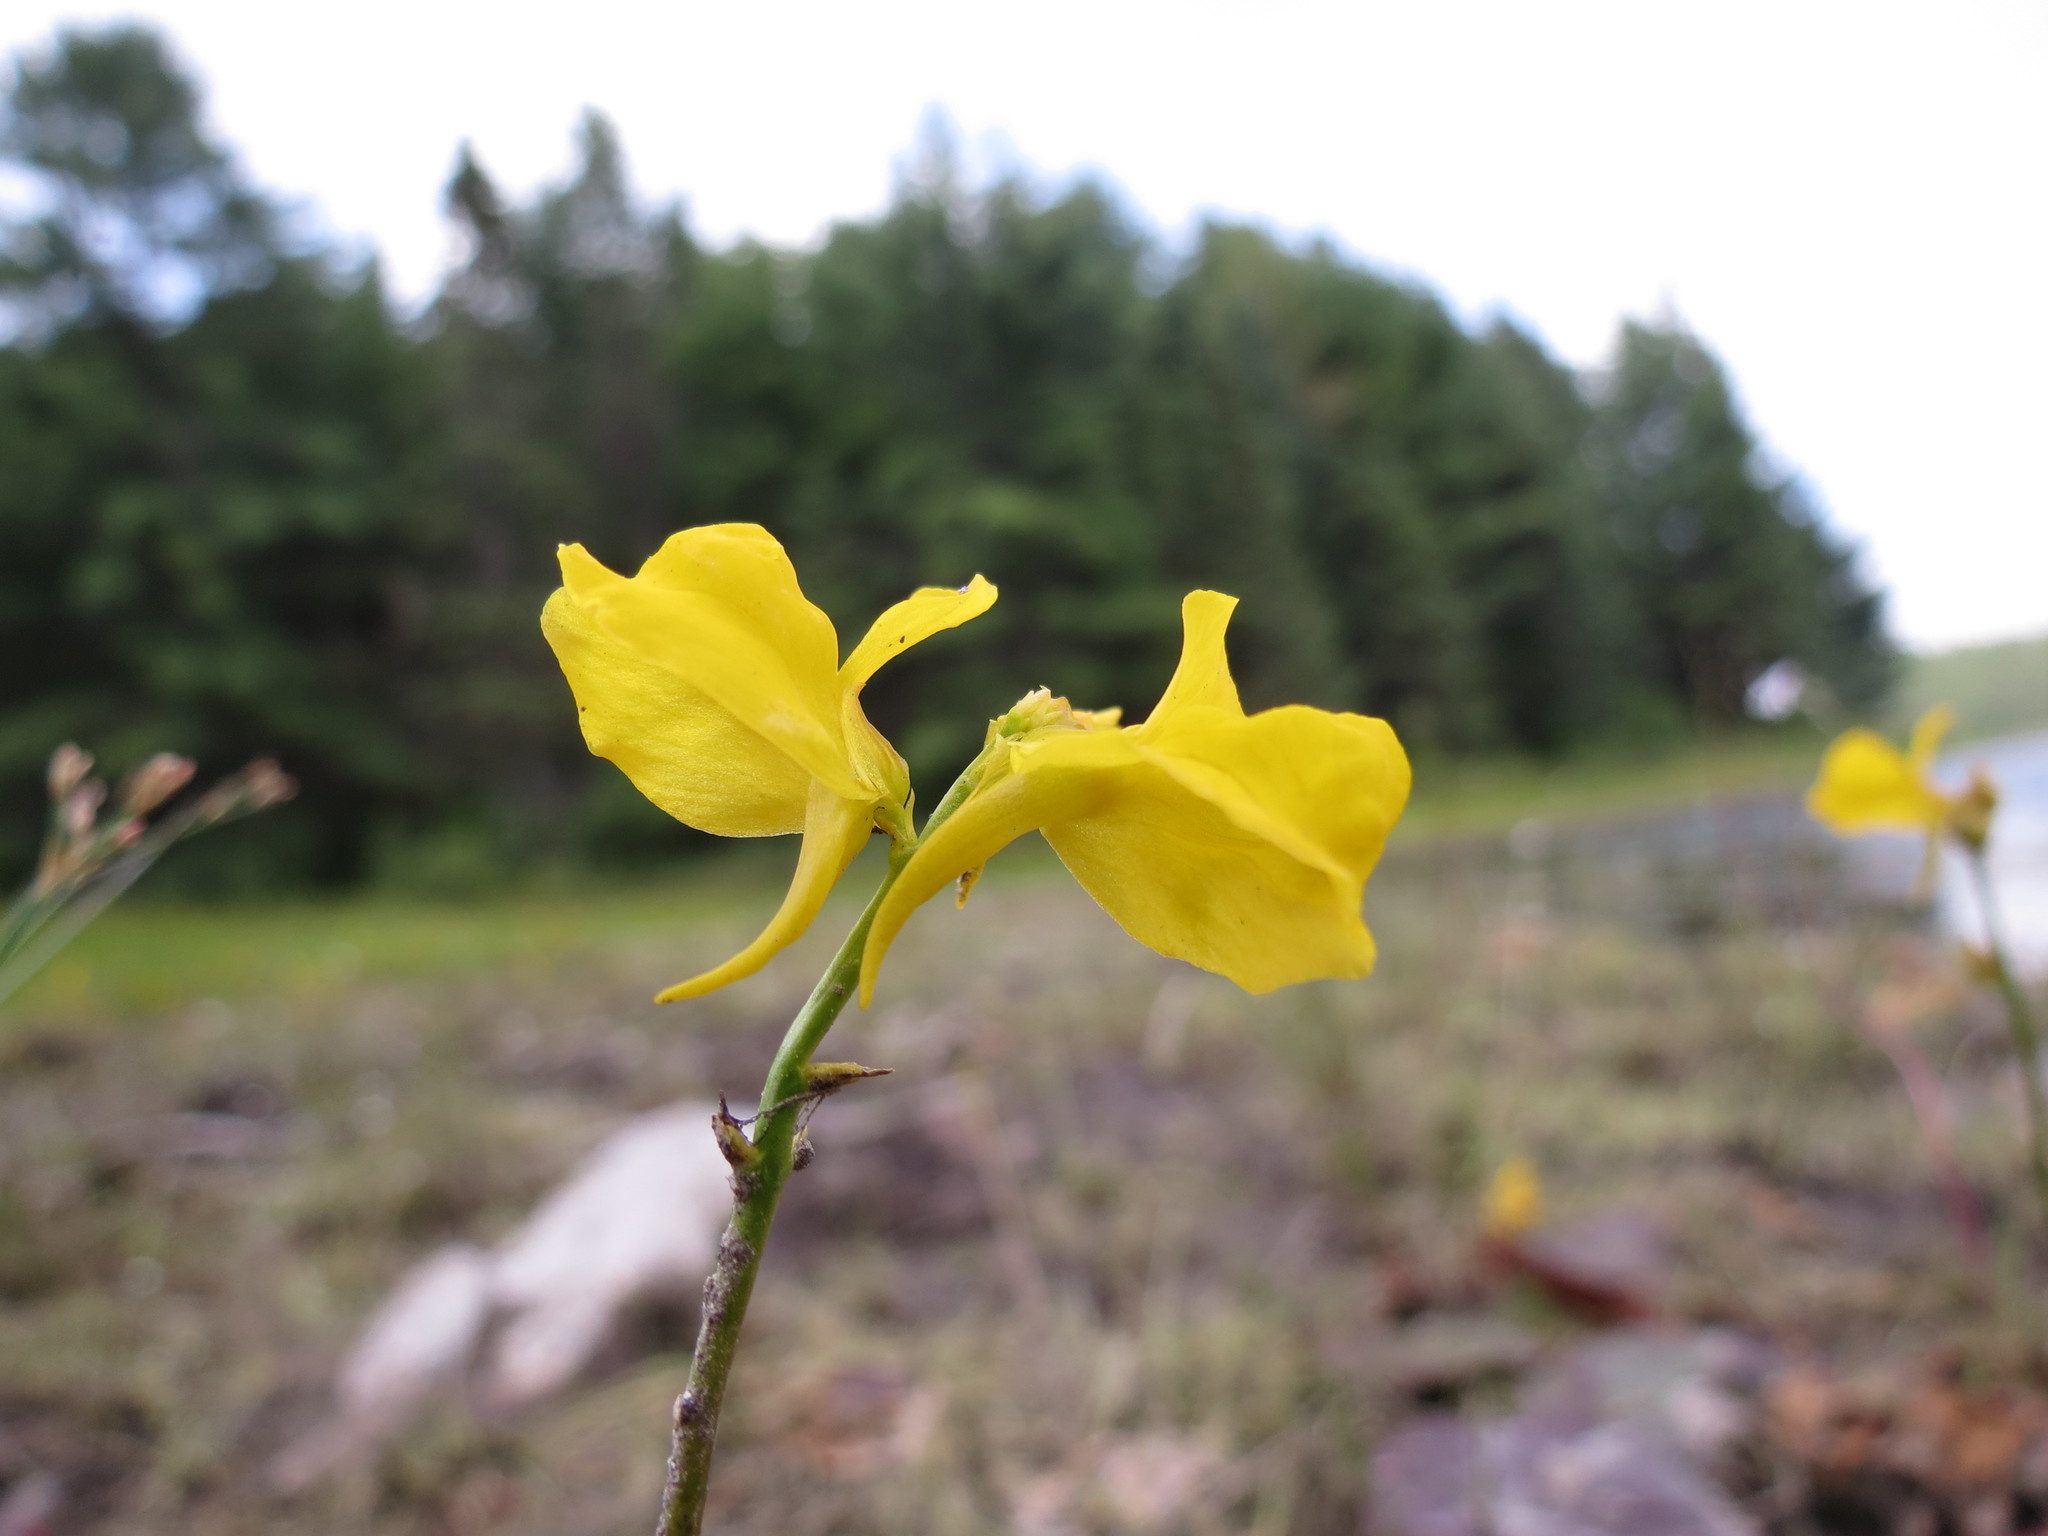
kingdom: Plantae
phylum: Tracheophyta
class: Magnoliopsida
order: Lamiales
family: Lentibulariaceae
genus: Utricularia
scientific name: Utricularia cornuta
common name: Horned bladderwort
